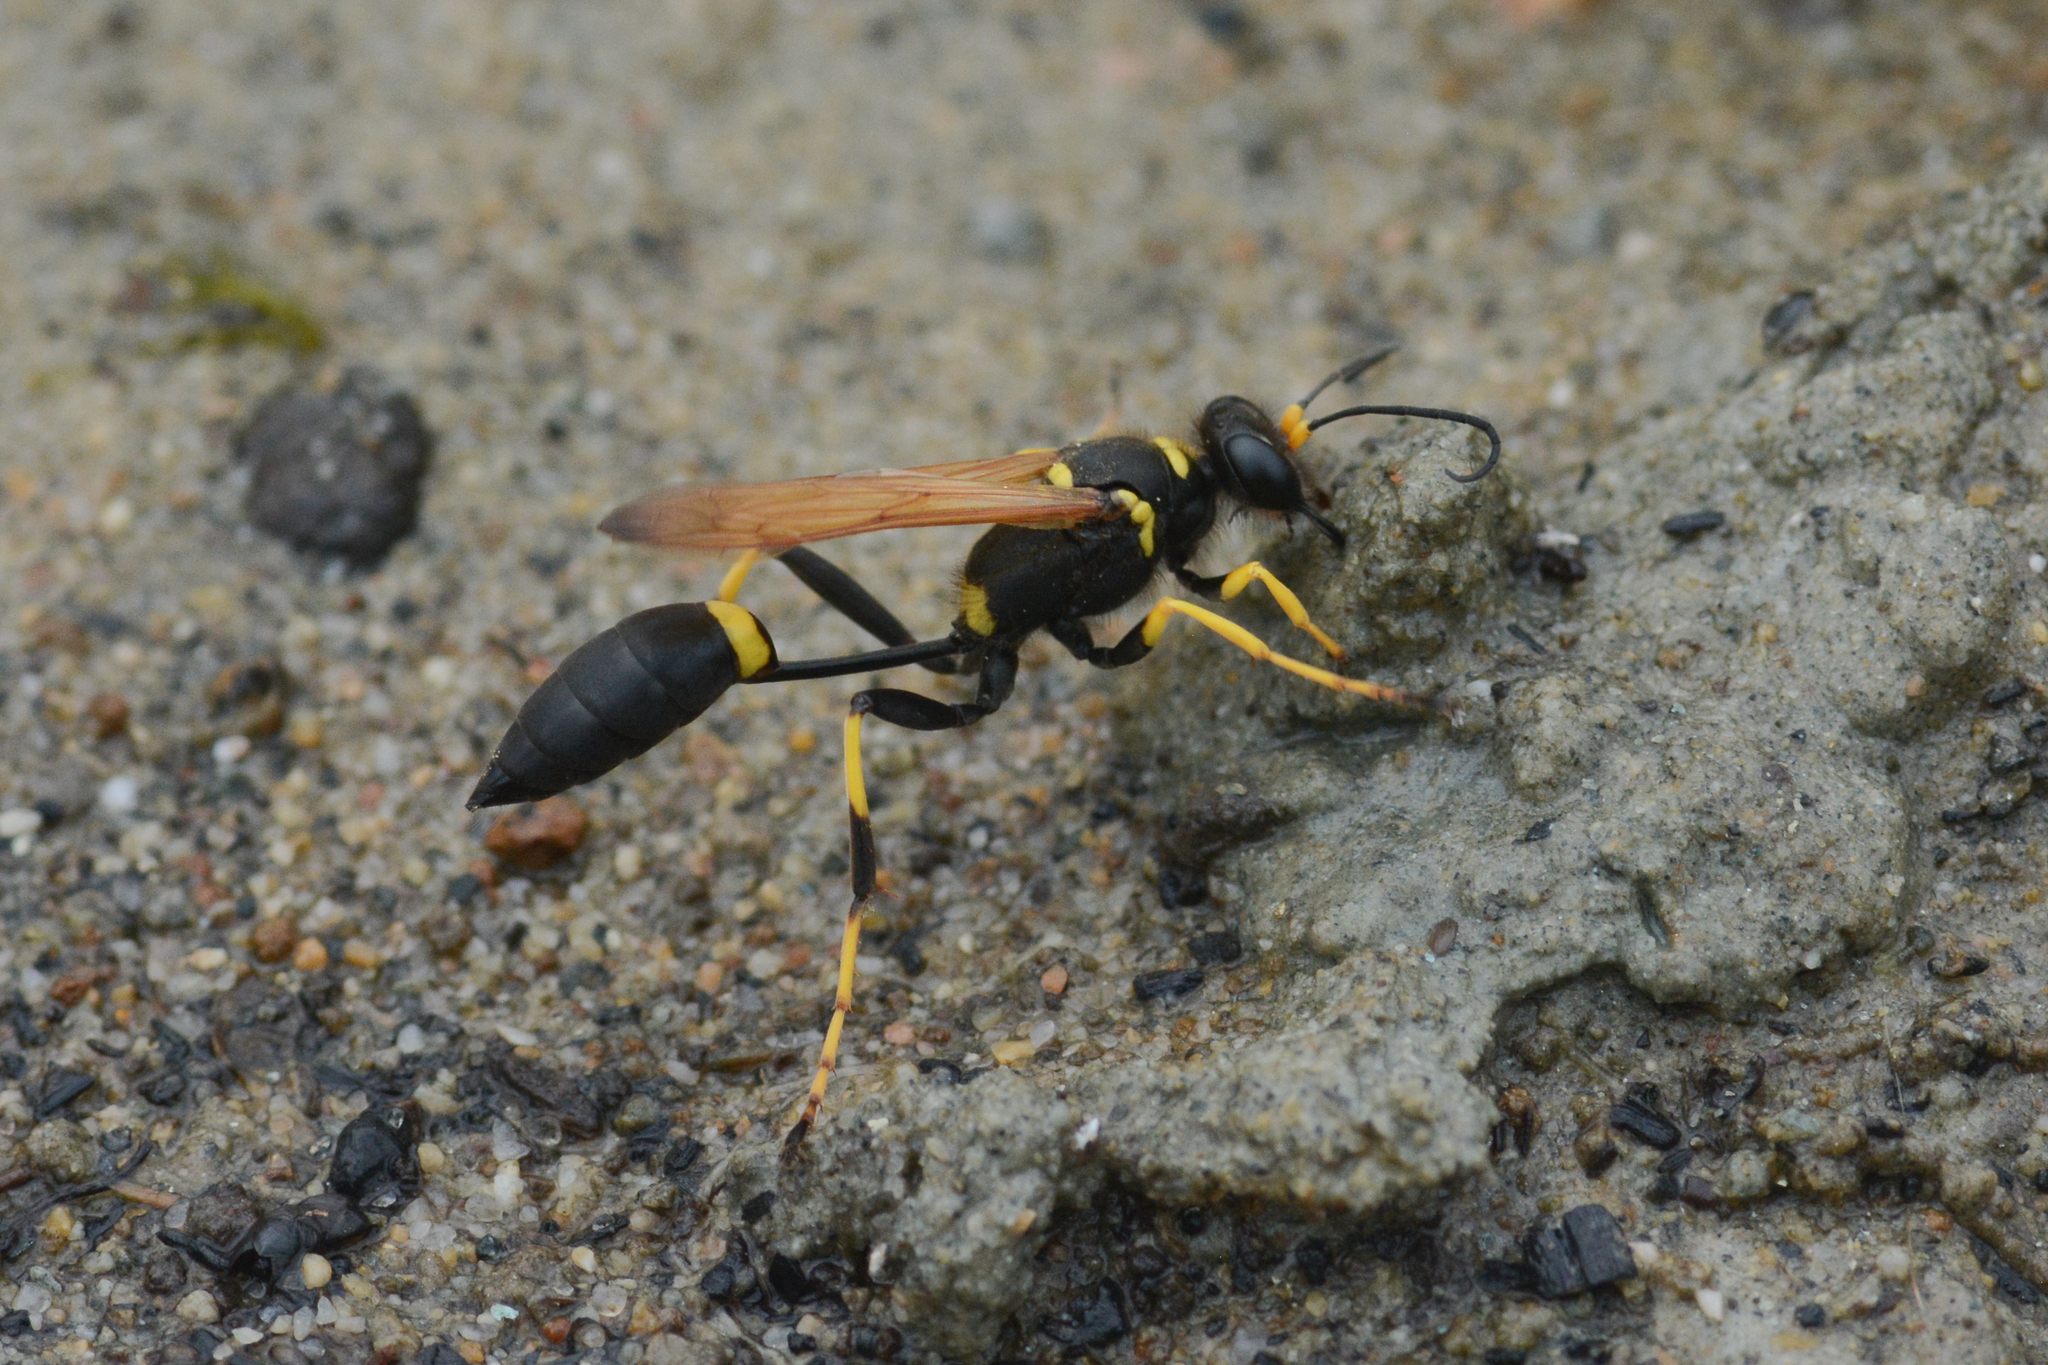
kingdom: Animalia
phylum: Arthropoda
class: Insecta
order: Hymenoptera
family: Sphecidae
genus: Sceliphron
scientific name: Sceliphron caementarium
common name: Mud dauber
